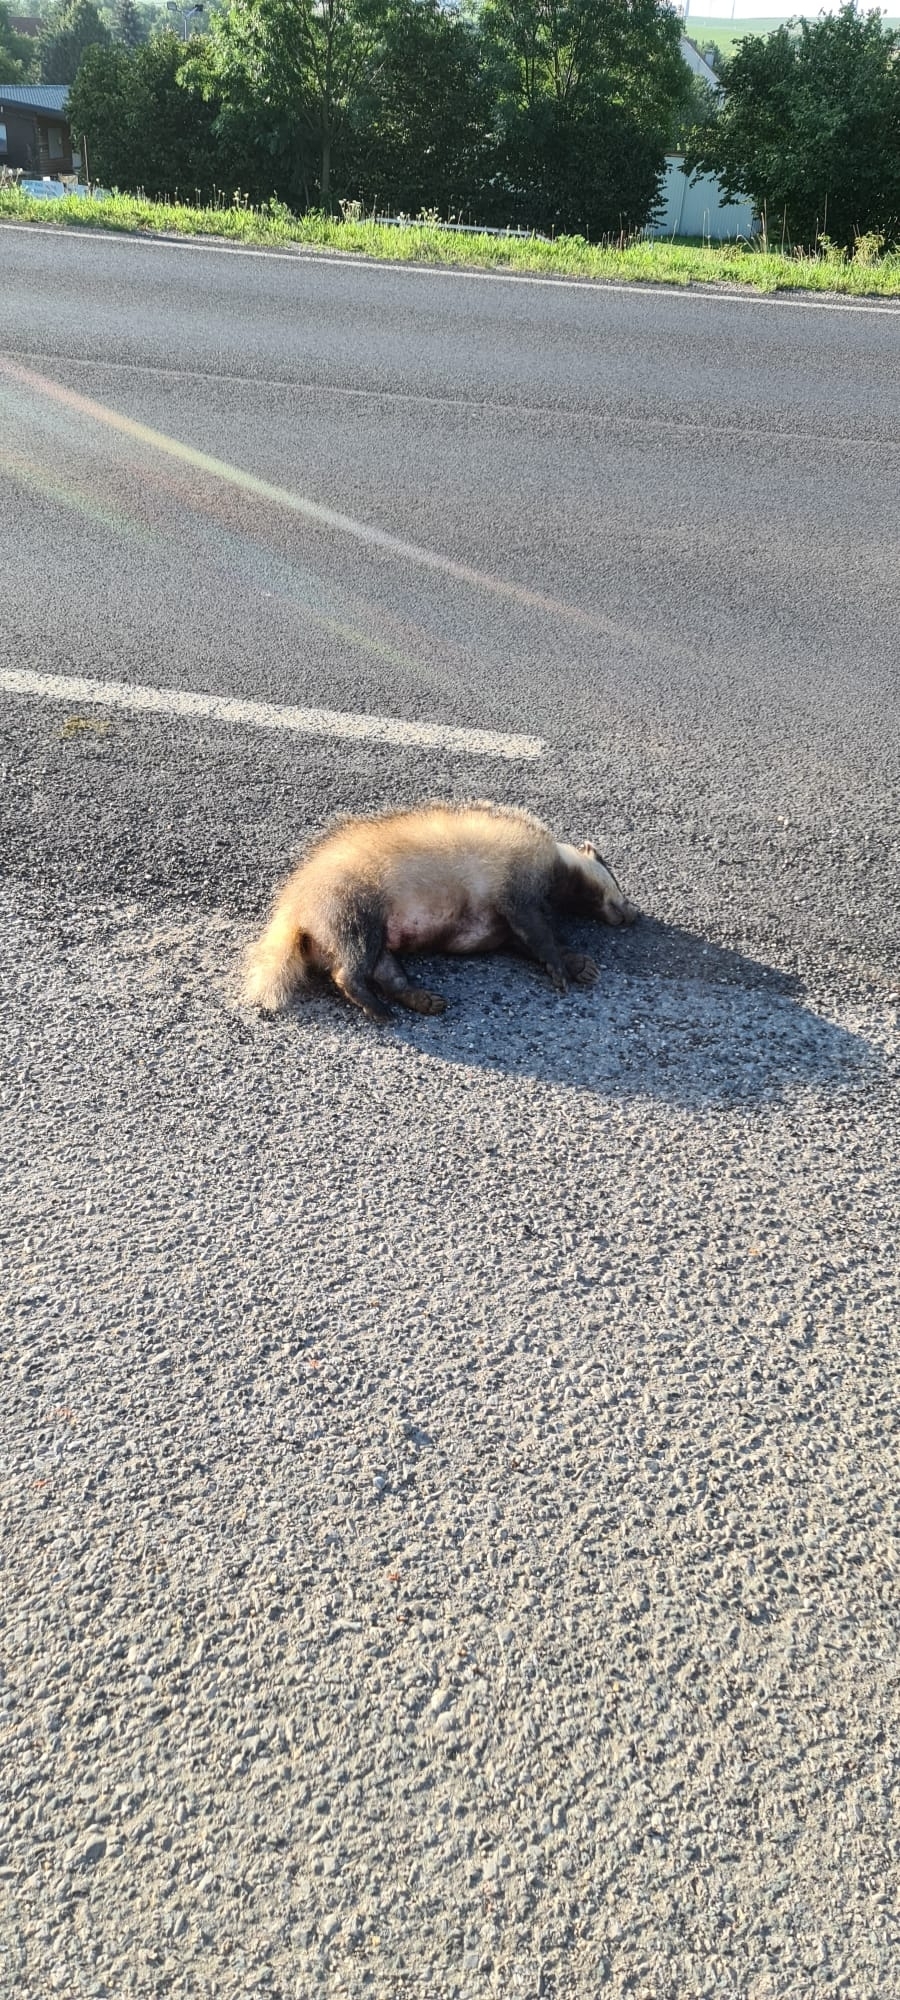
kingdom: Animalia
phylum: Chordata
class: Mammalia
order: Carnivora
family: Mustelidae
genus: Meles
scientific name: Meles meles
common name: Eurasian badger
